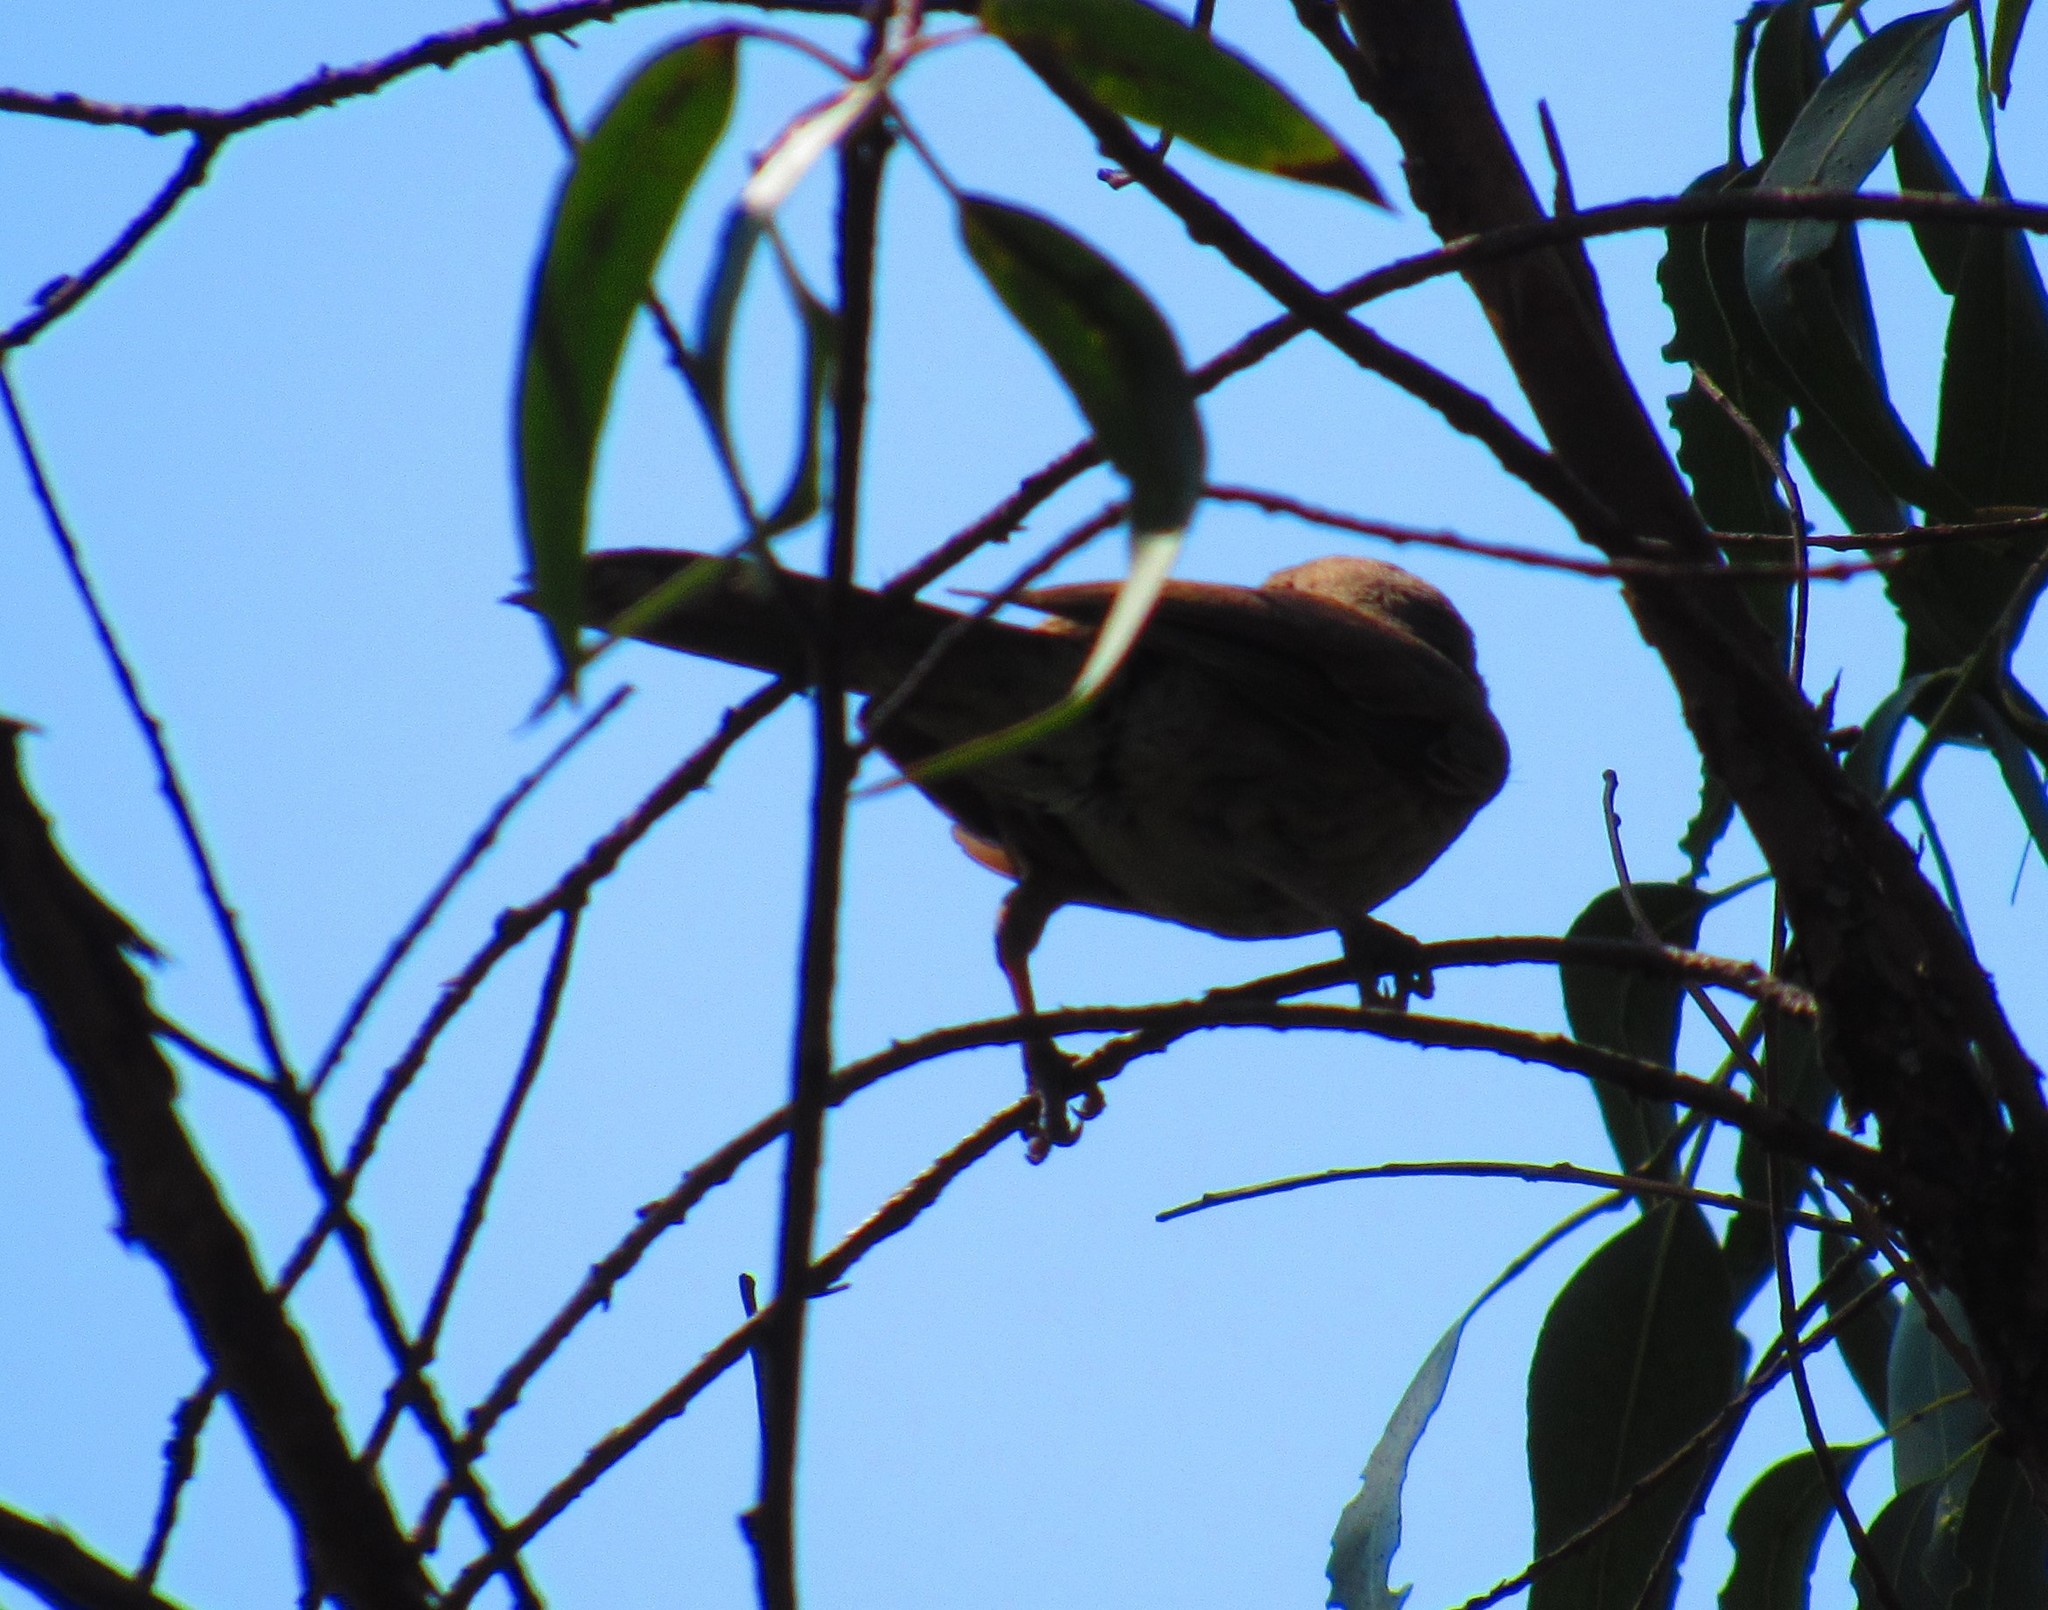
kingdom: Animalia
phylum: Chordata
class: Aves
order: Passeriformes
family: Mimidae
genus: Toxostoma
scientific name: Toxostoma curvirostre
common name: Curve-billed thrasher
